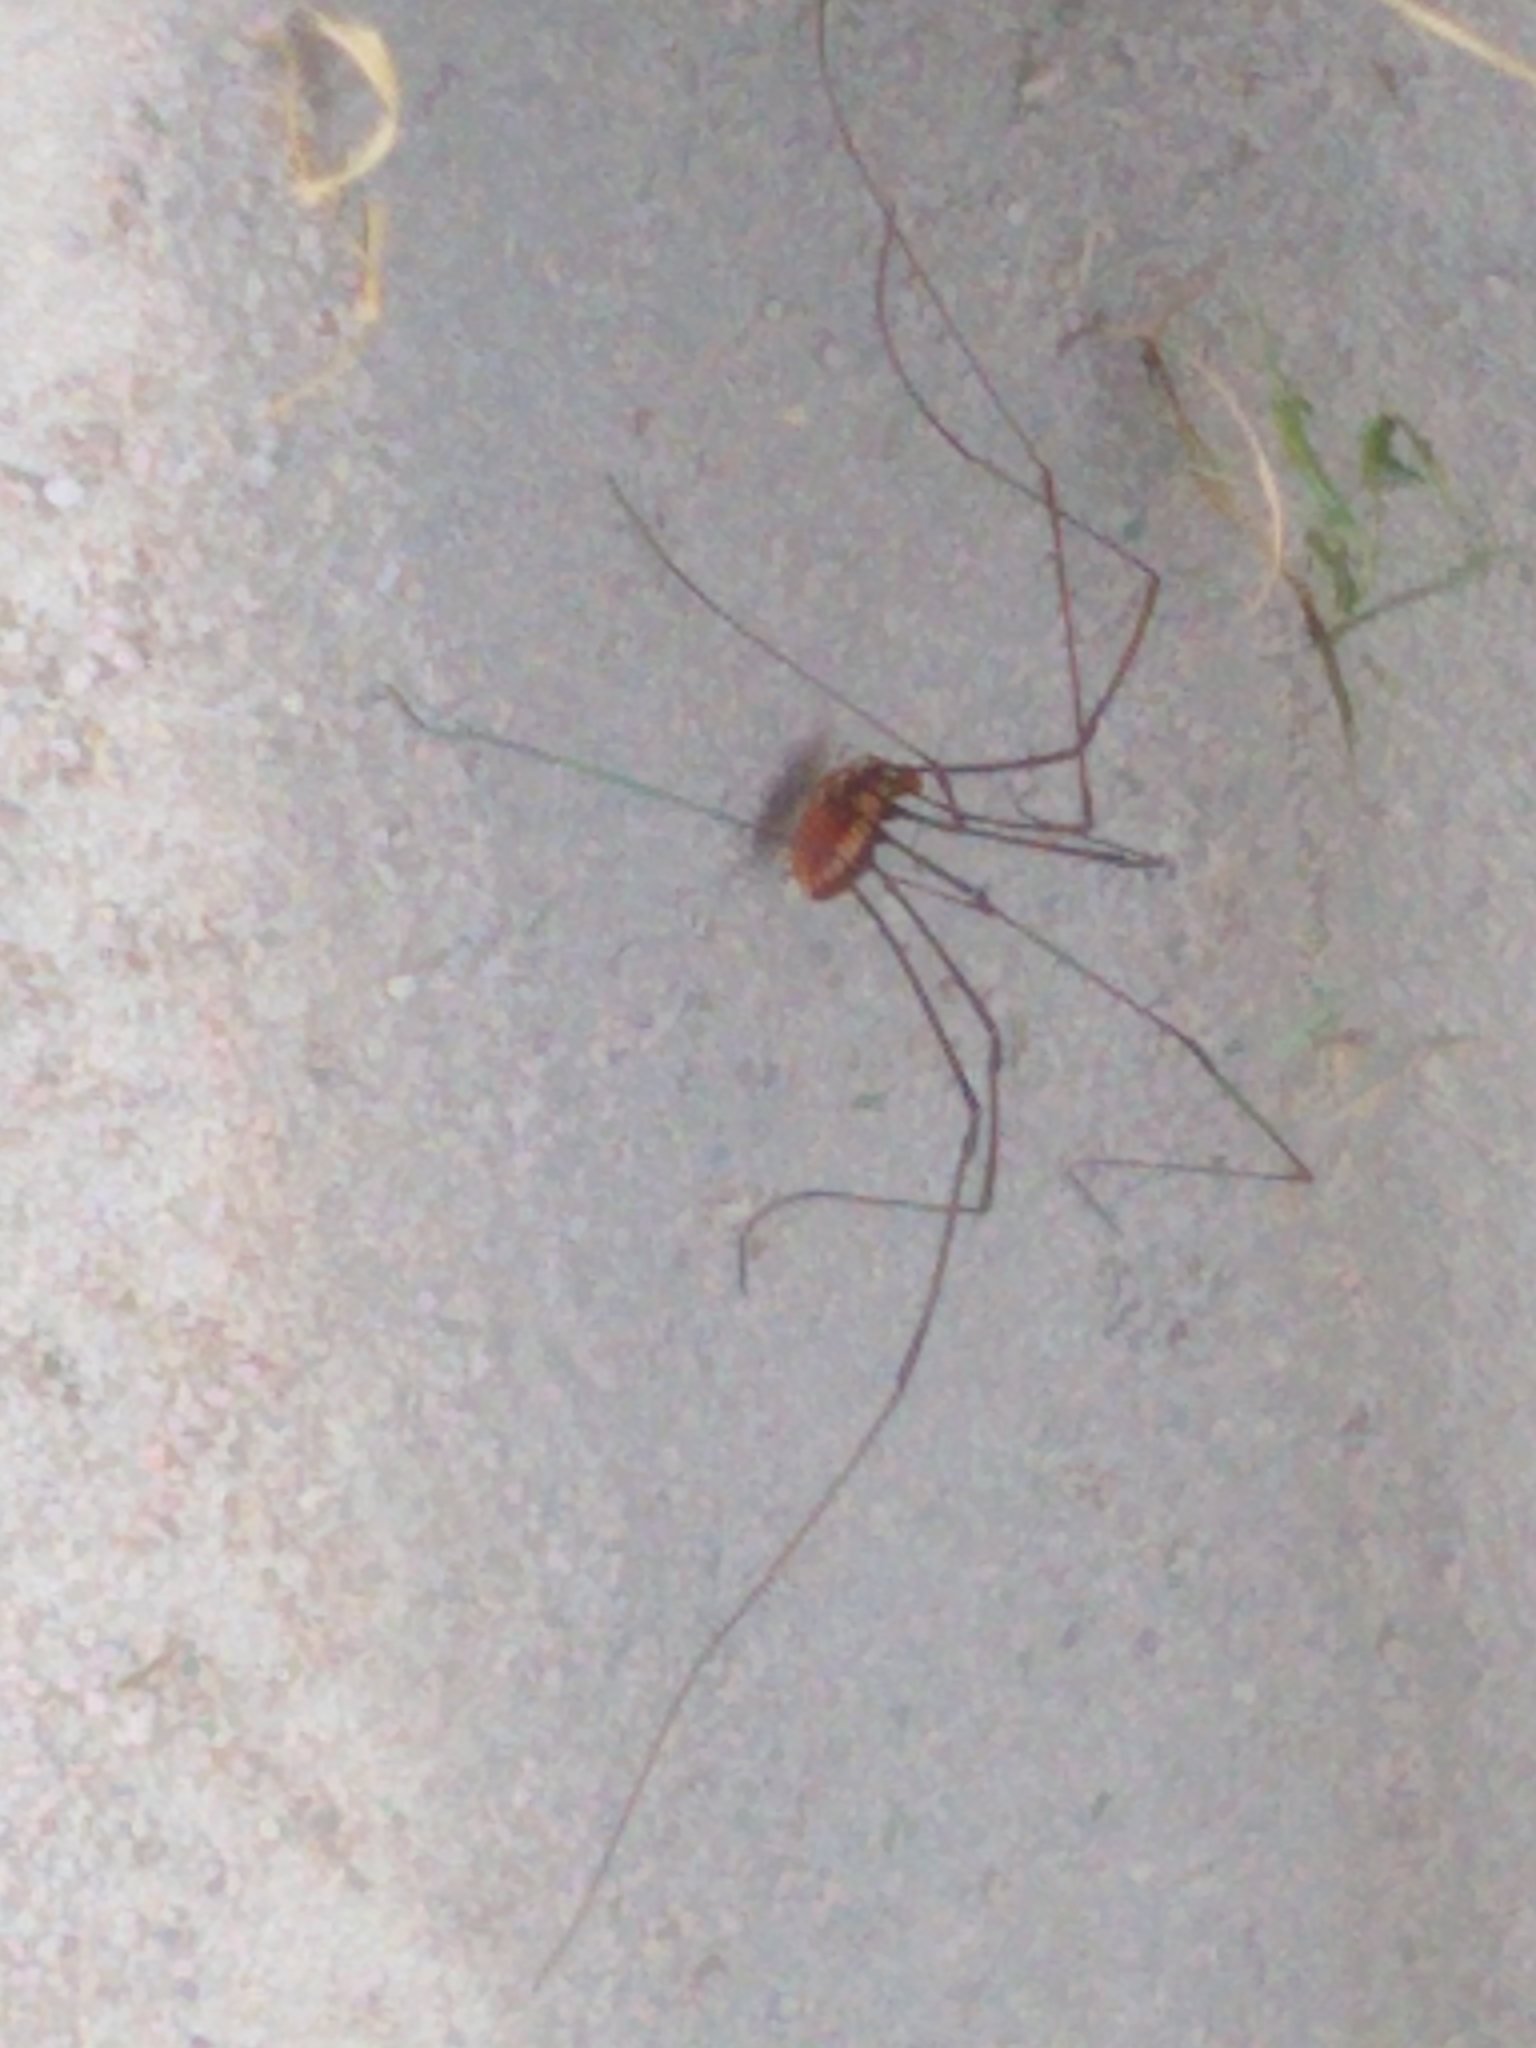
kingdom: Animalia
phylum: Arthropoda
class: Arachnida
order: Opiliones
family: Sclerosomatidae
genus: Leiobunum
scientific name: Leiobunum vittatum
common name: Eastern harvestman
